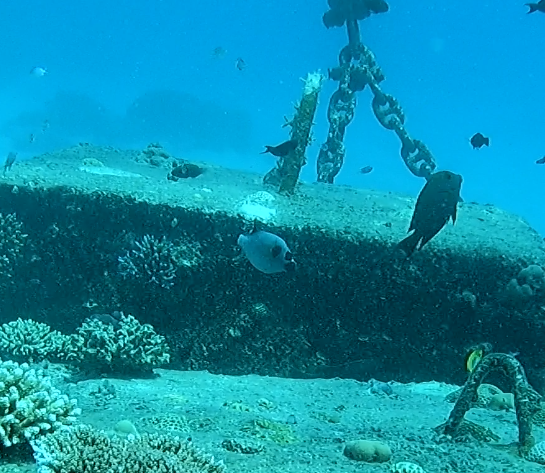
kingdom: Animalia
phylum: Chordata
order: Tetraodontiformes
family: Tetraodontidae
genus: Arothron
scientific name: Arothron nigropunctatus
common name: Black spotted blow fish
